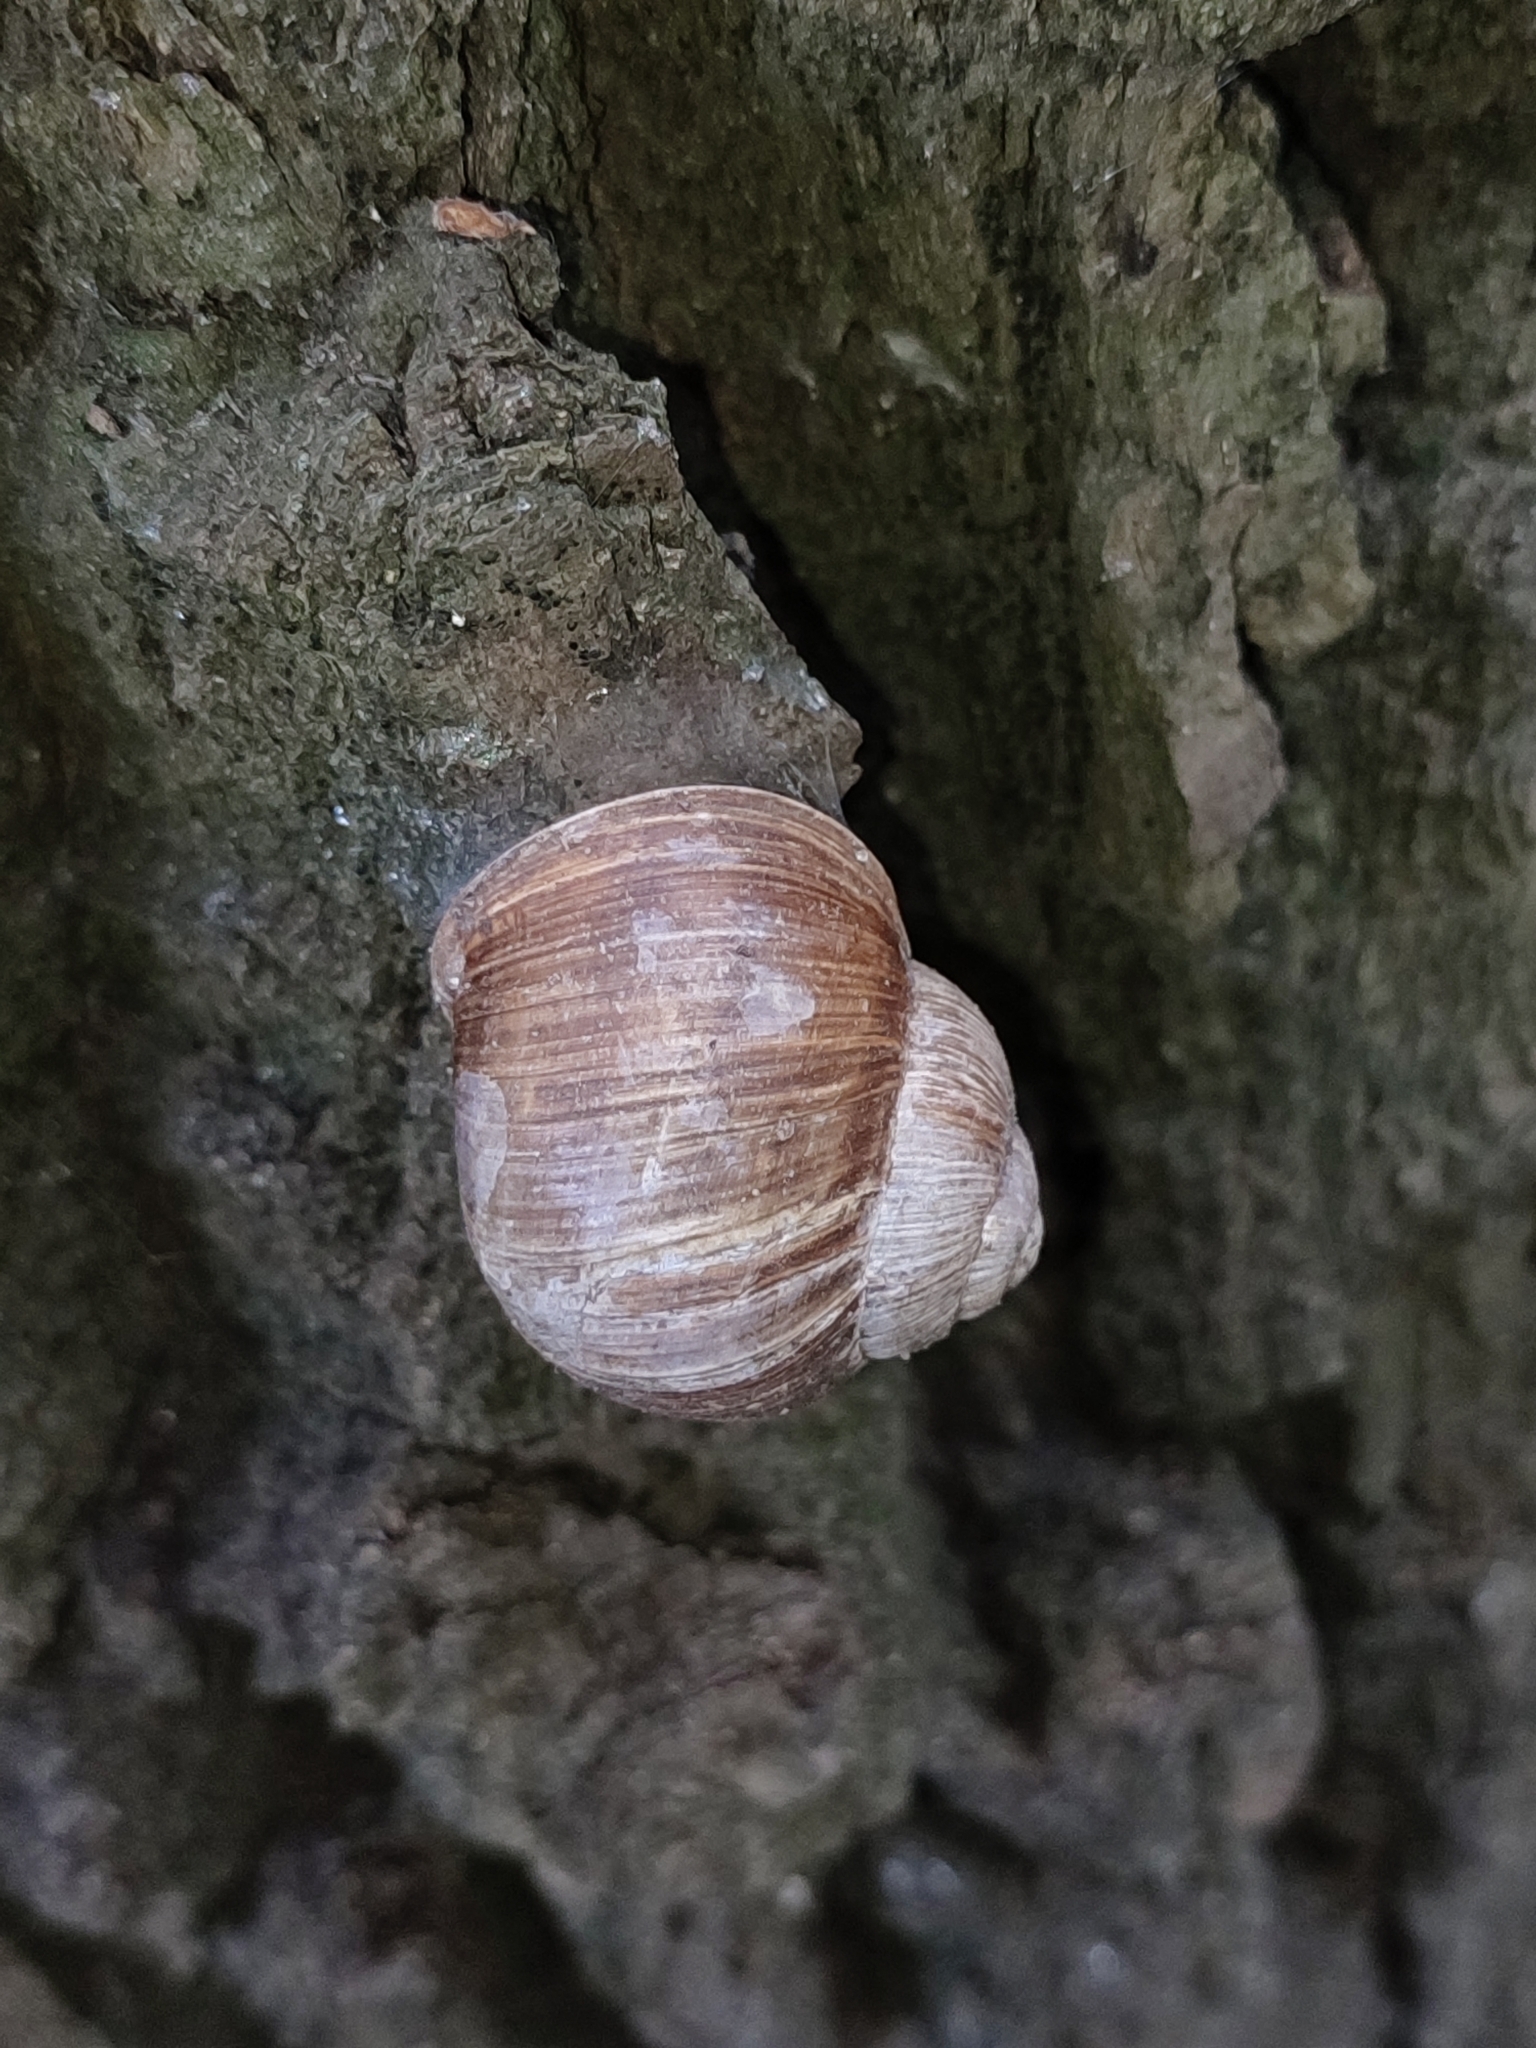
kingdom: Animalia
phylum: Mollusca
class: Gastropoda
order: Stylommatophora
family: Helicidae
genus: Helix
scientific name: Helix pomatia
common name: Roman snail
